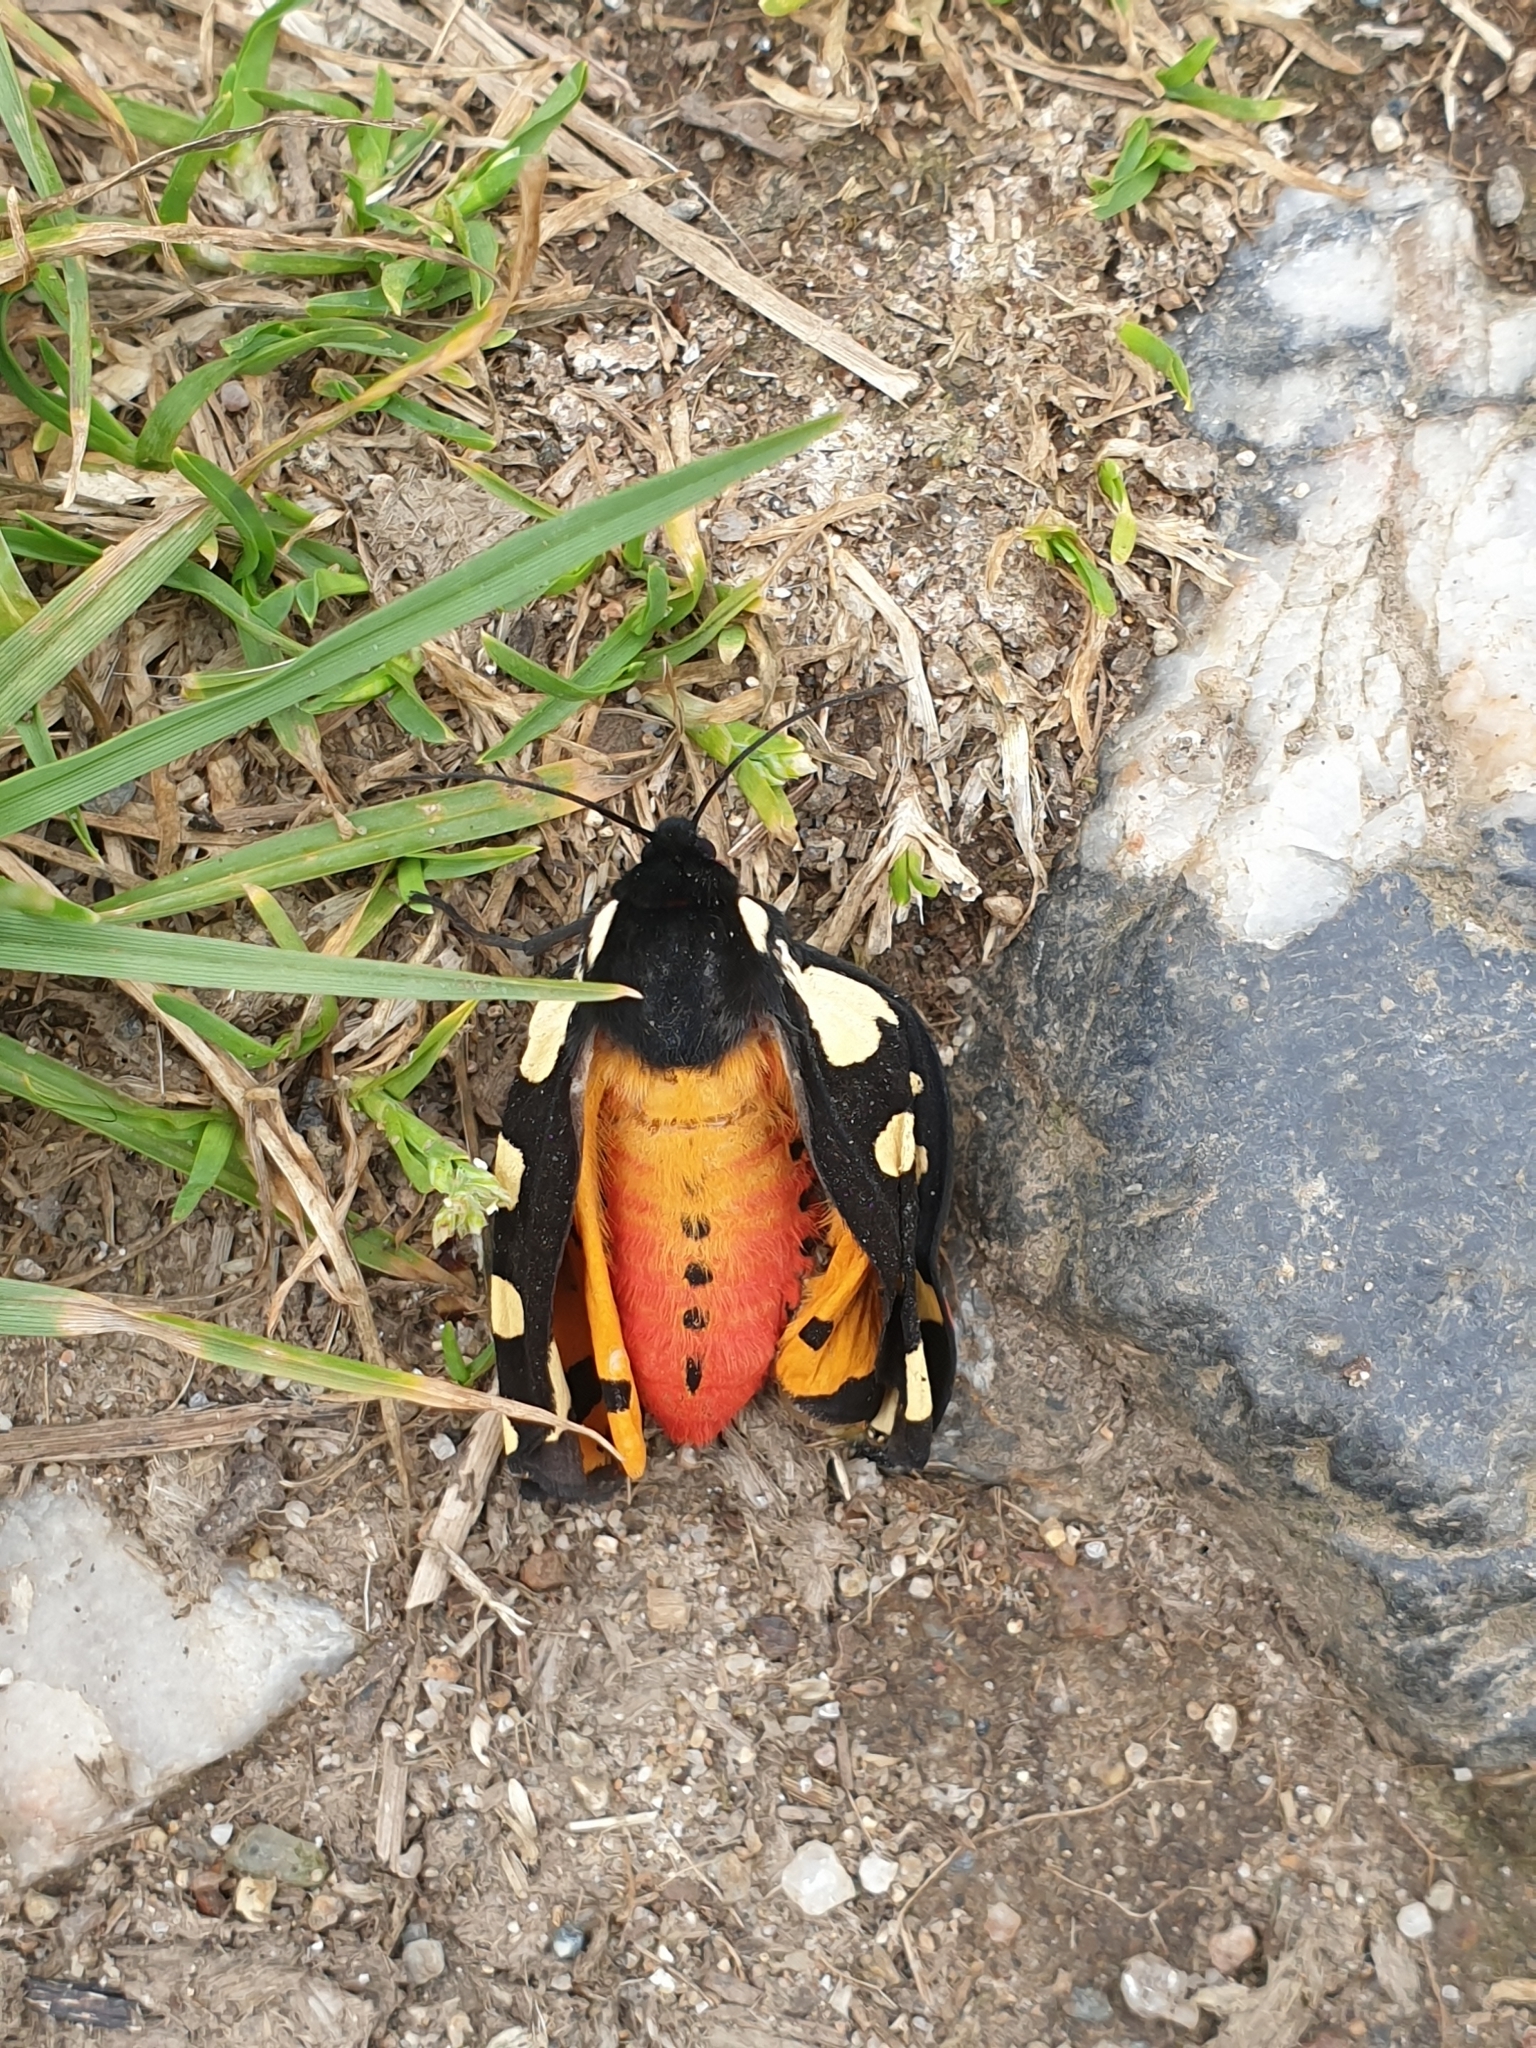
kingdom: Animalia
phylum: Arthropoda
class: Insecta
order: Lepidoptera
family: Erebidae
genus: Epicallia
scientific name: Epicallia villica
